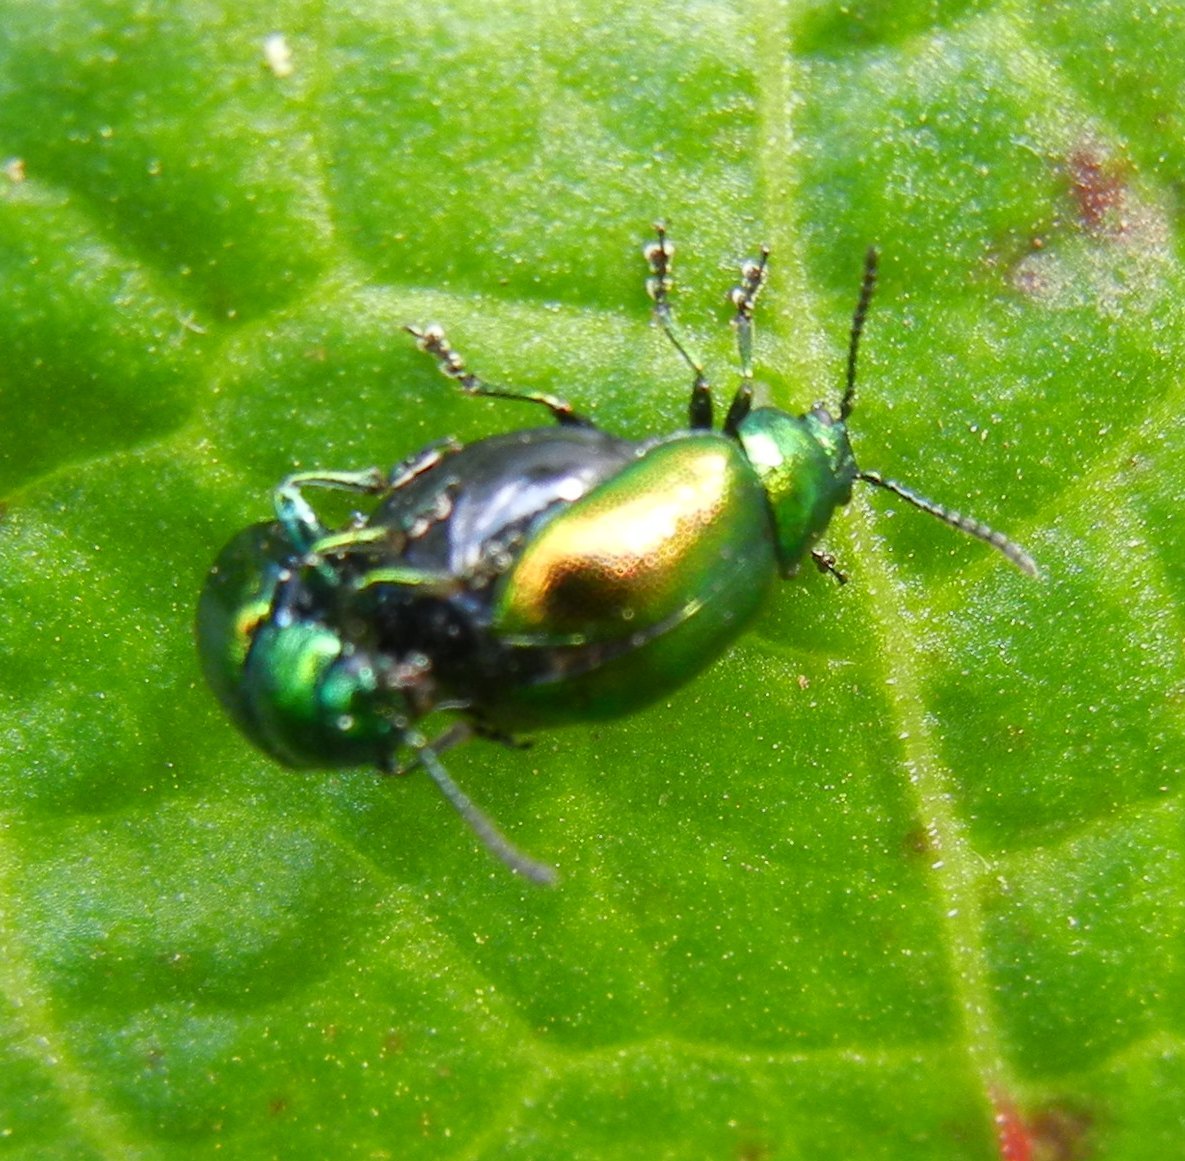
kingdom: Animalia
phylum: Arthropoda
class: Insecta
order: Coleoptera
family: Chrysomelidae
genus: Gastrophysa
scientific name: Gastrophysa viridula
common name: Green dock beetle
